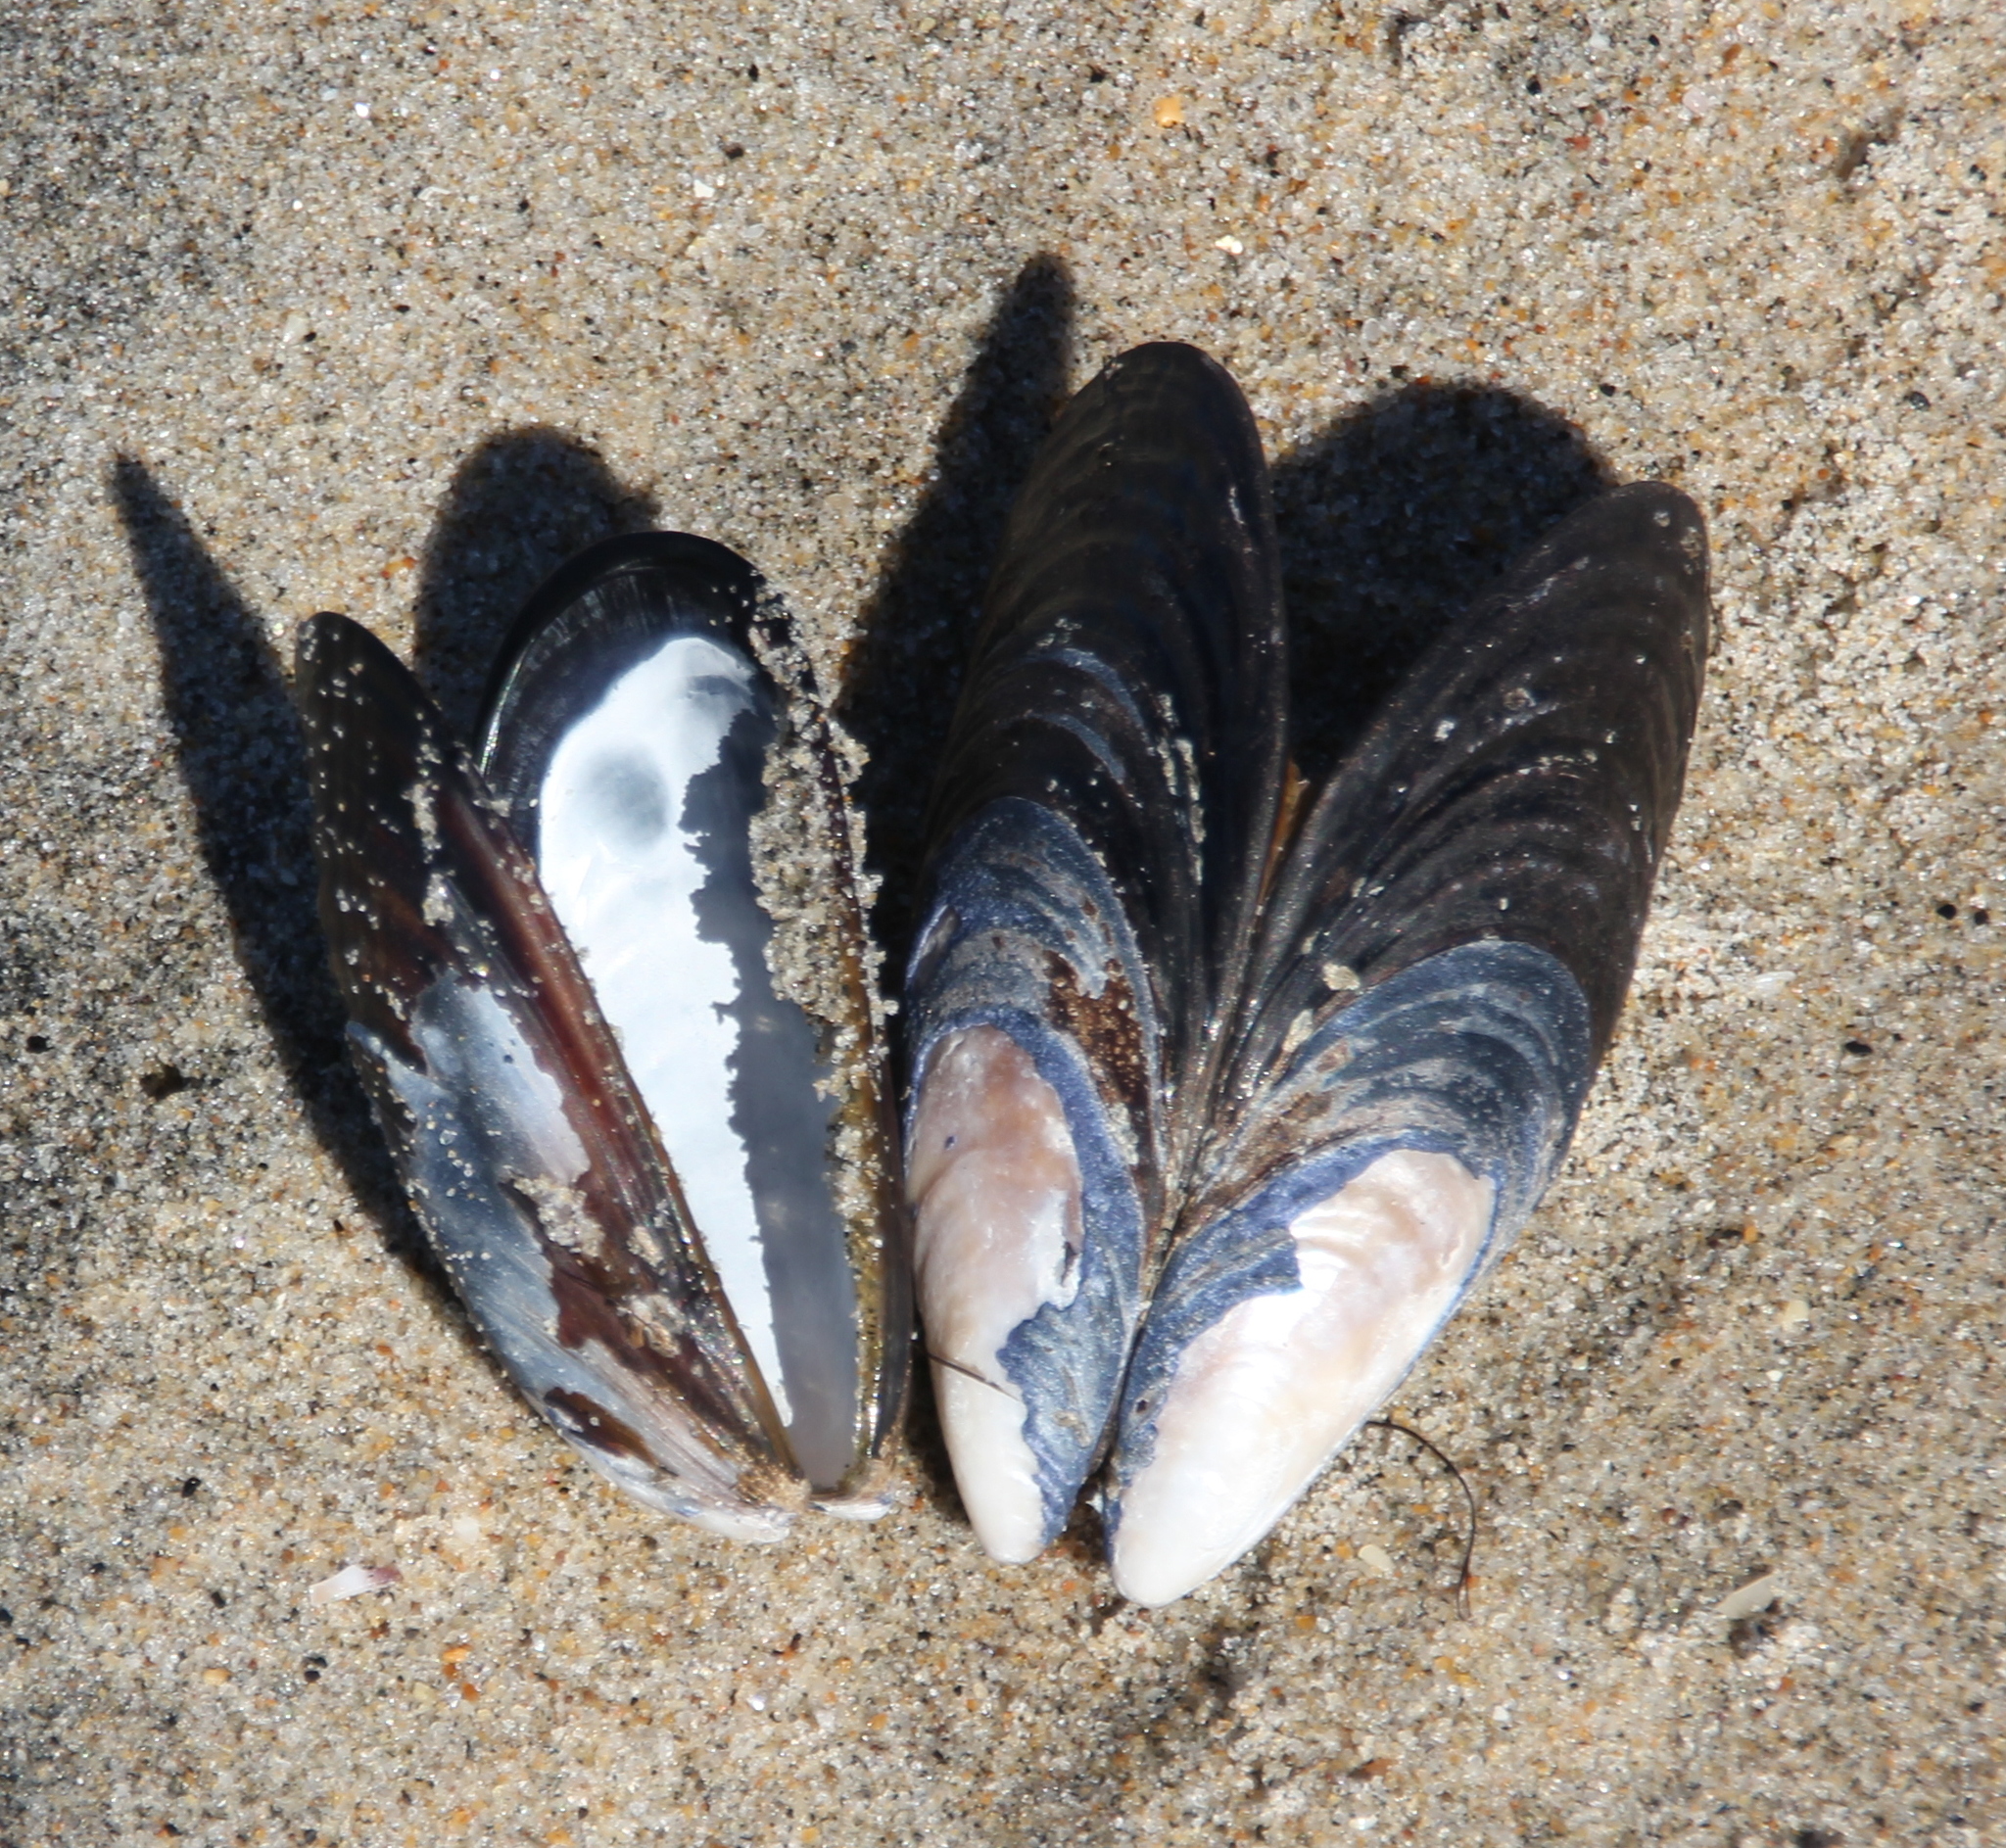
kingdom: Animalia
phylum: Mollusca
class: Bivalvia
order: Mytilida
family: Mytilidae
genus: Mytilus
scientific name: Mytilus californianus
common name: California mussel
